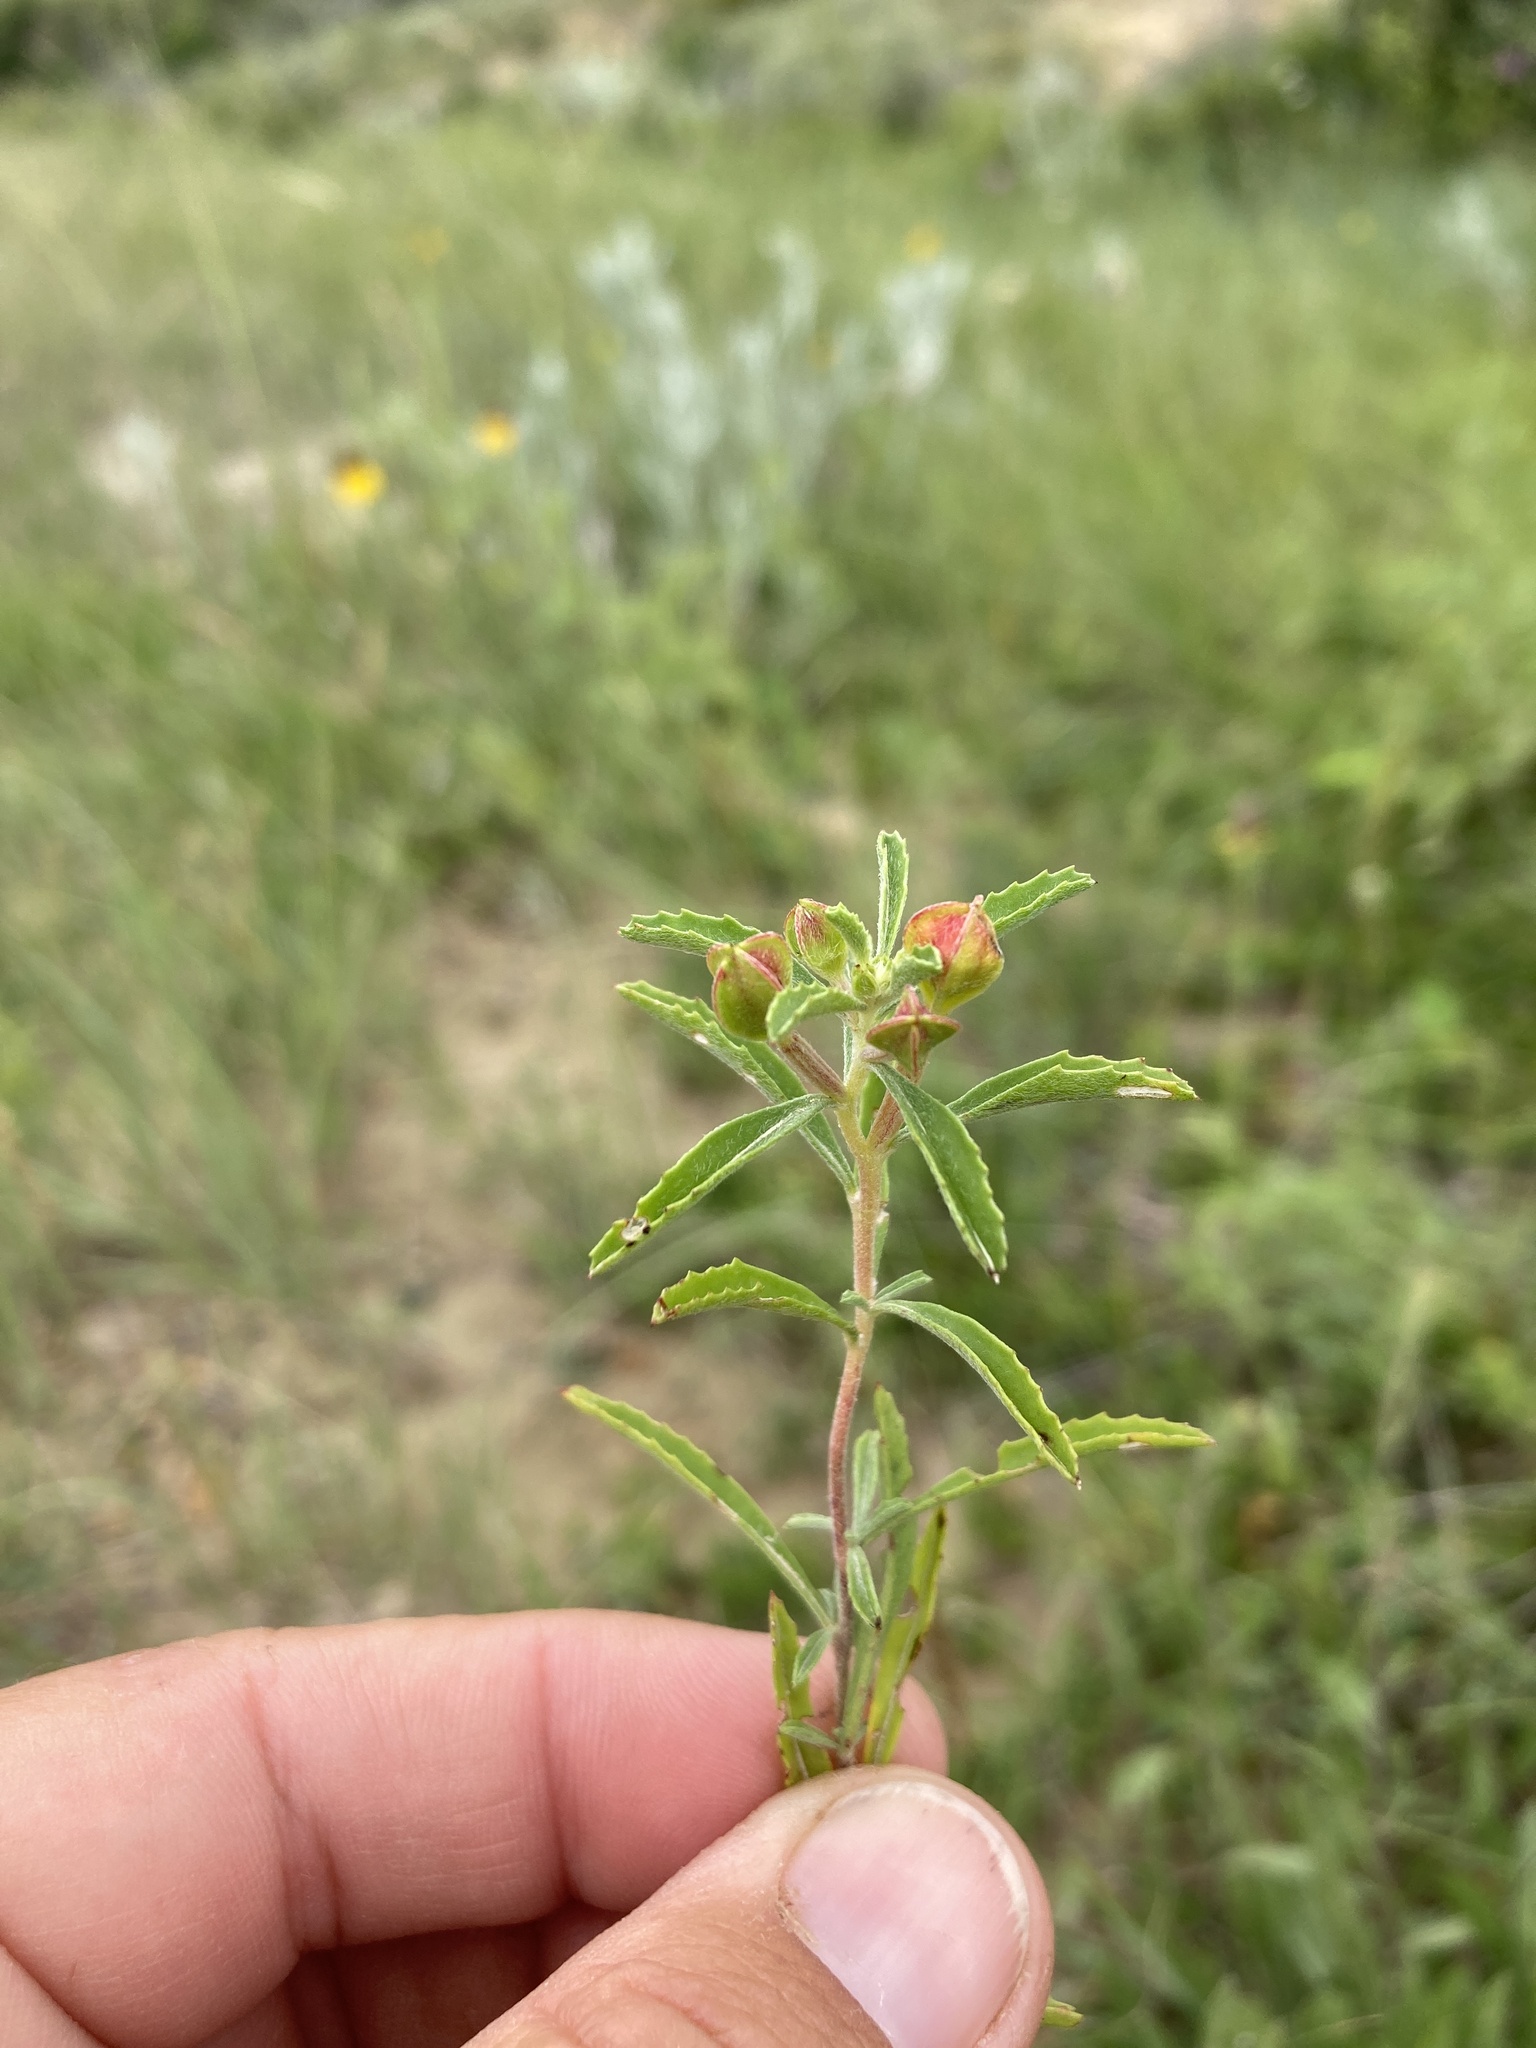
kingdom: Plantae
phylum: Tracheophyta
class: Magnoliopsida
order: Myrtales
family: Onagraceae
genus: Oenothera
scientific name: Oenothera serrulata
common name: Half-shrub calylophus
